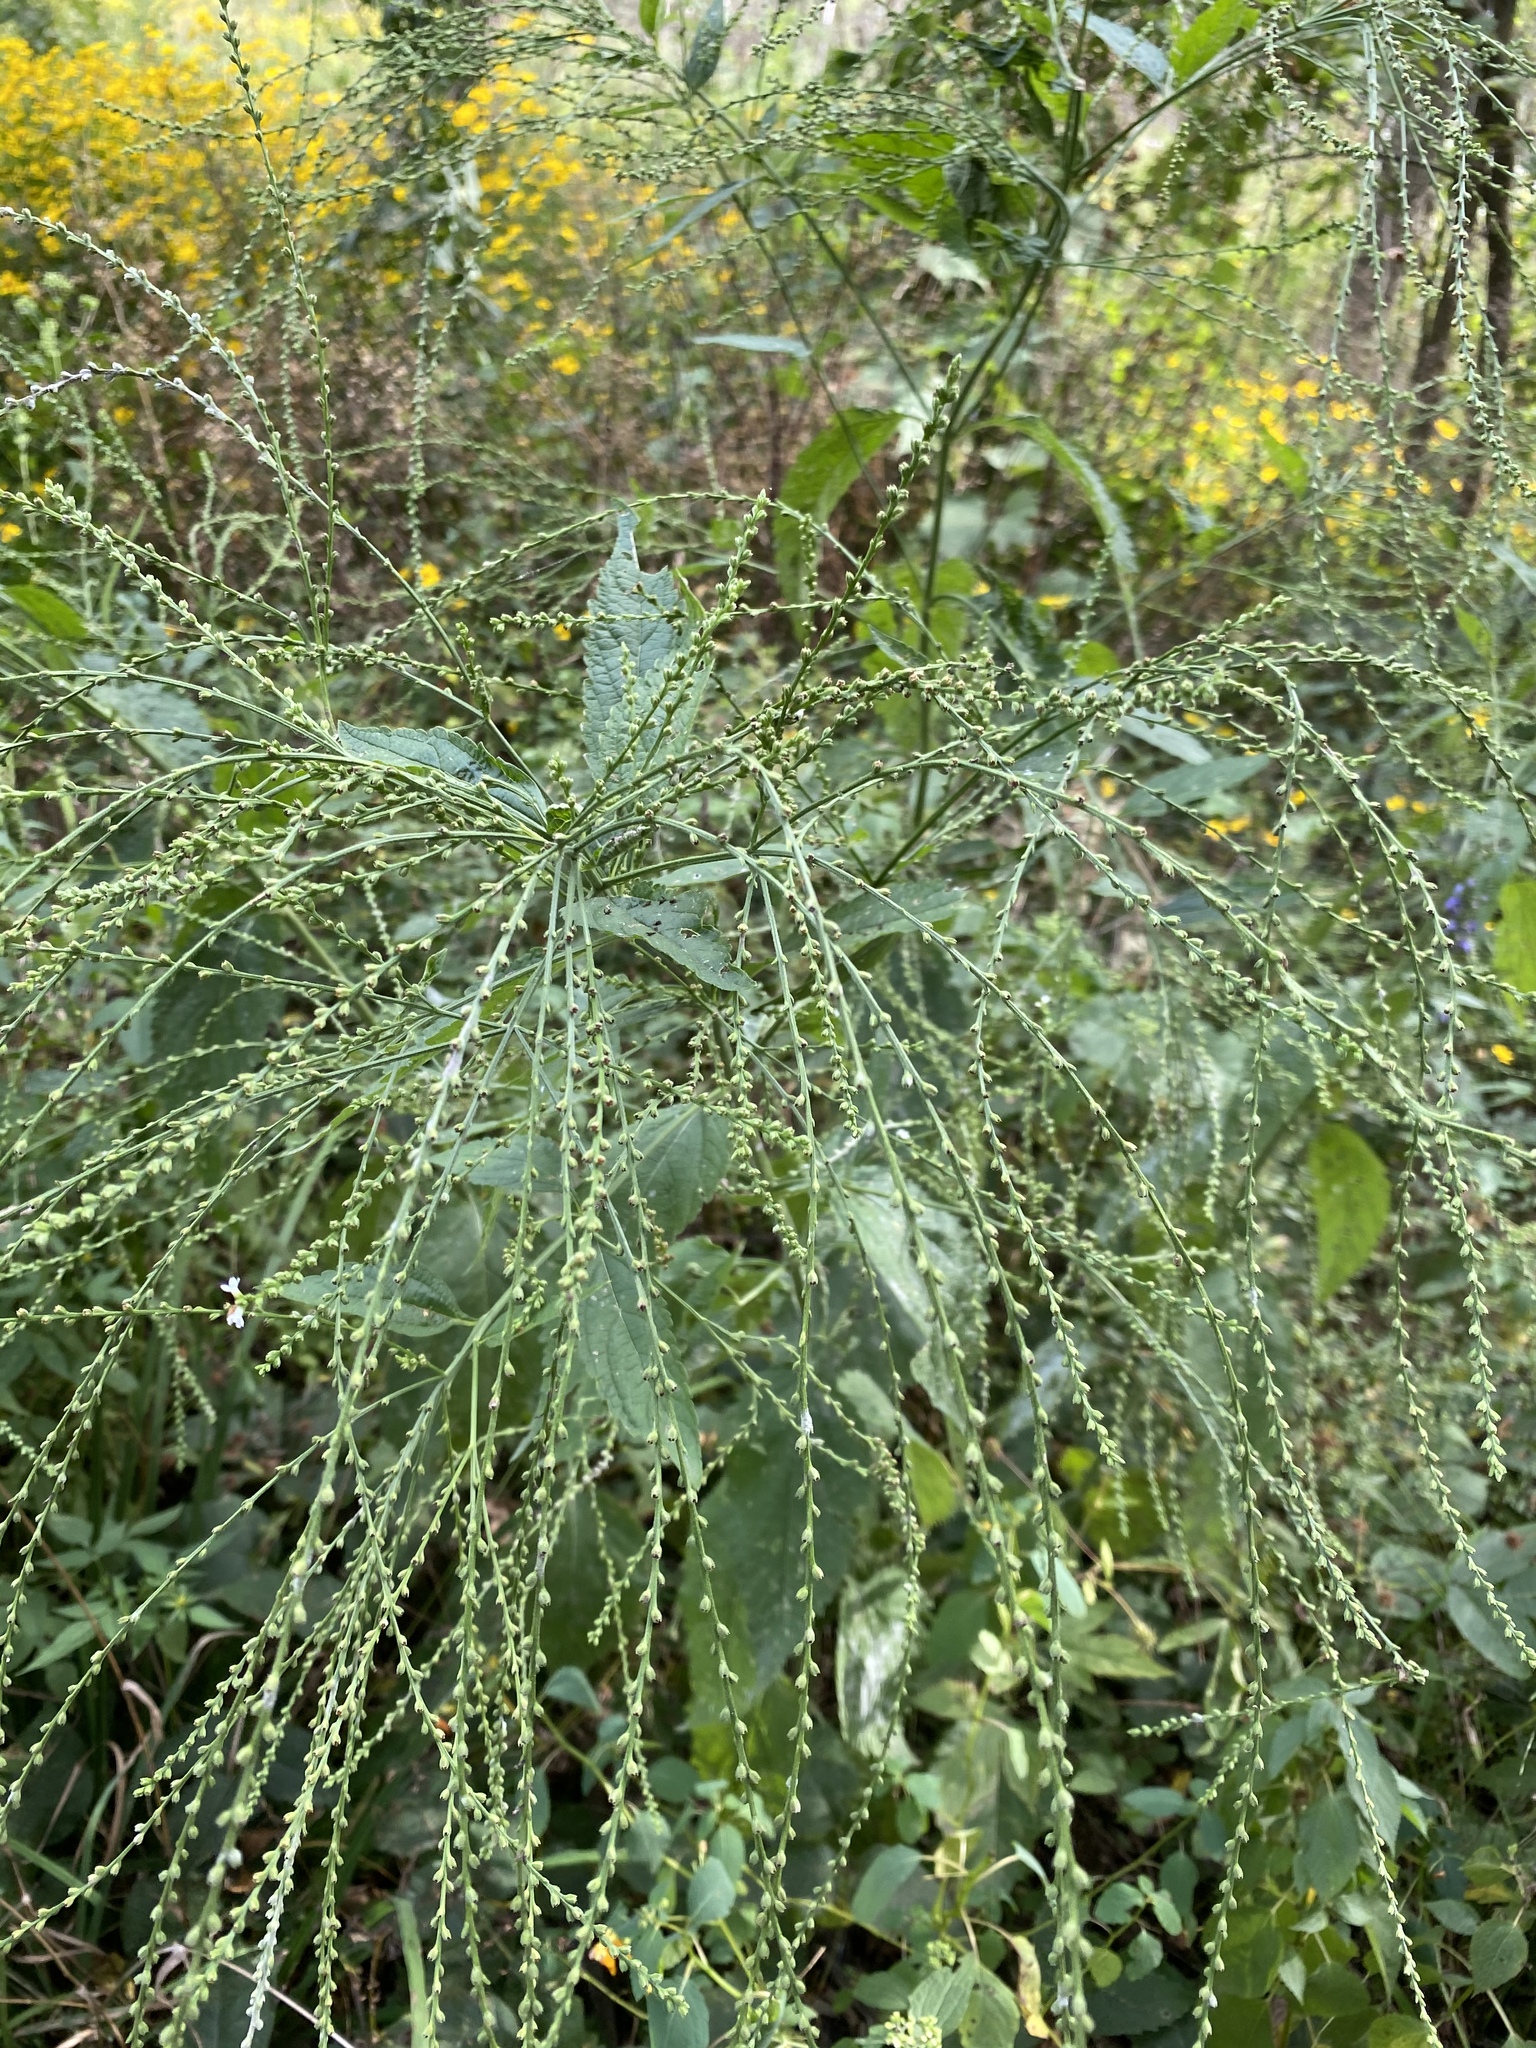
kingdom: Plantae
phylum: Tracheophyta
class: Magnoliopsida
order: Lamiales
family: Verbenaceae
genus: Verbena
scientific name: Verbena urticifolia
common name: Nettle-leaved vervain
